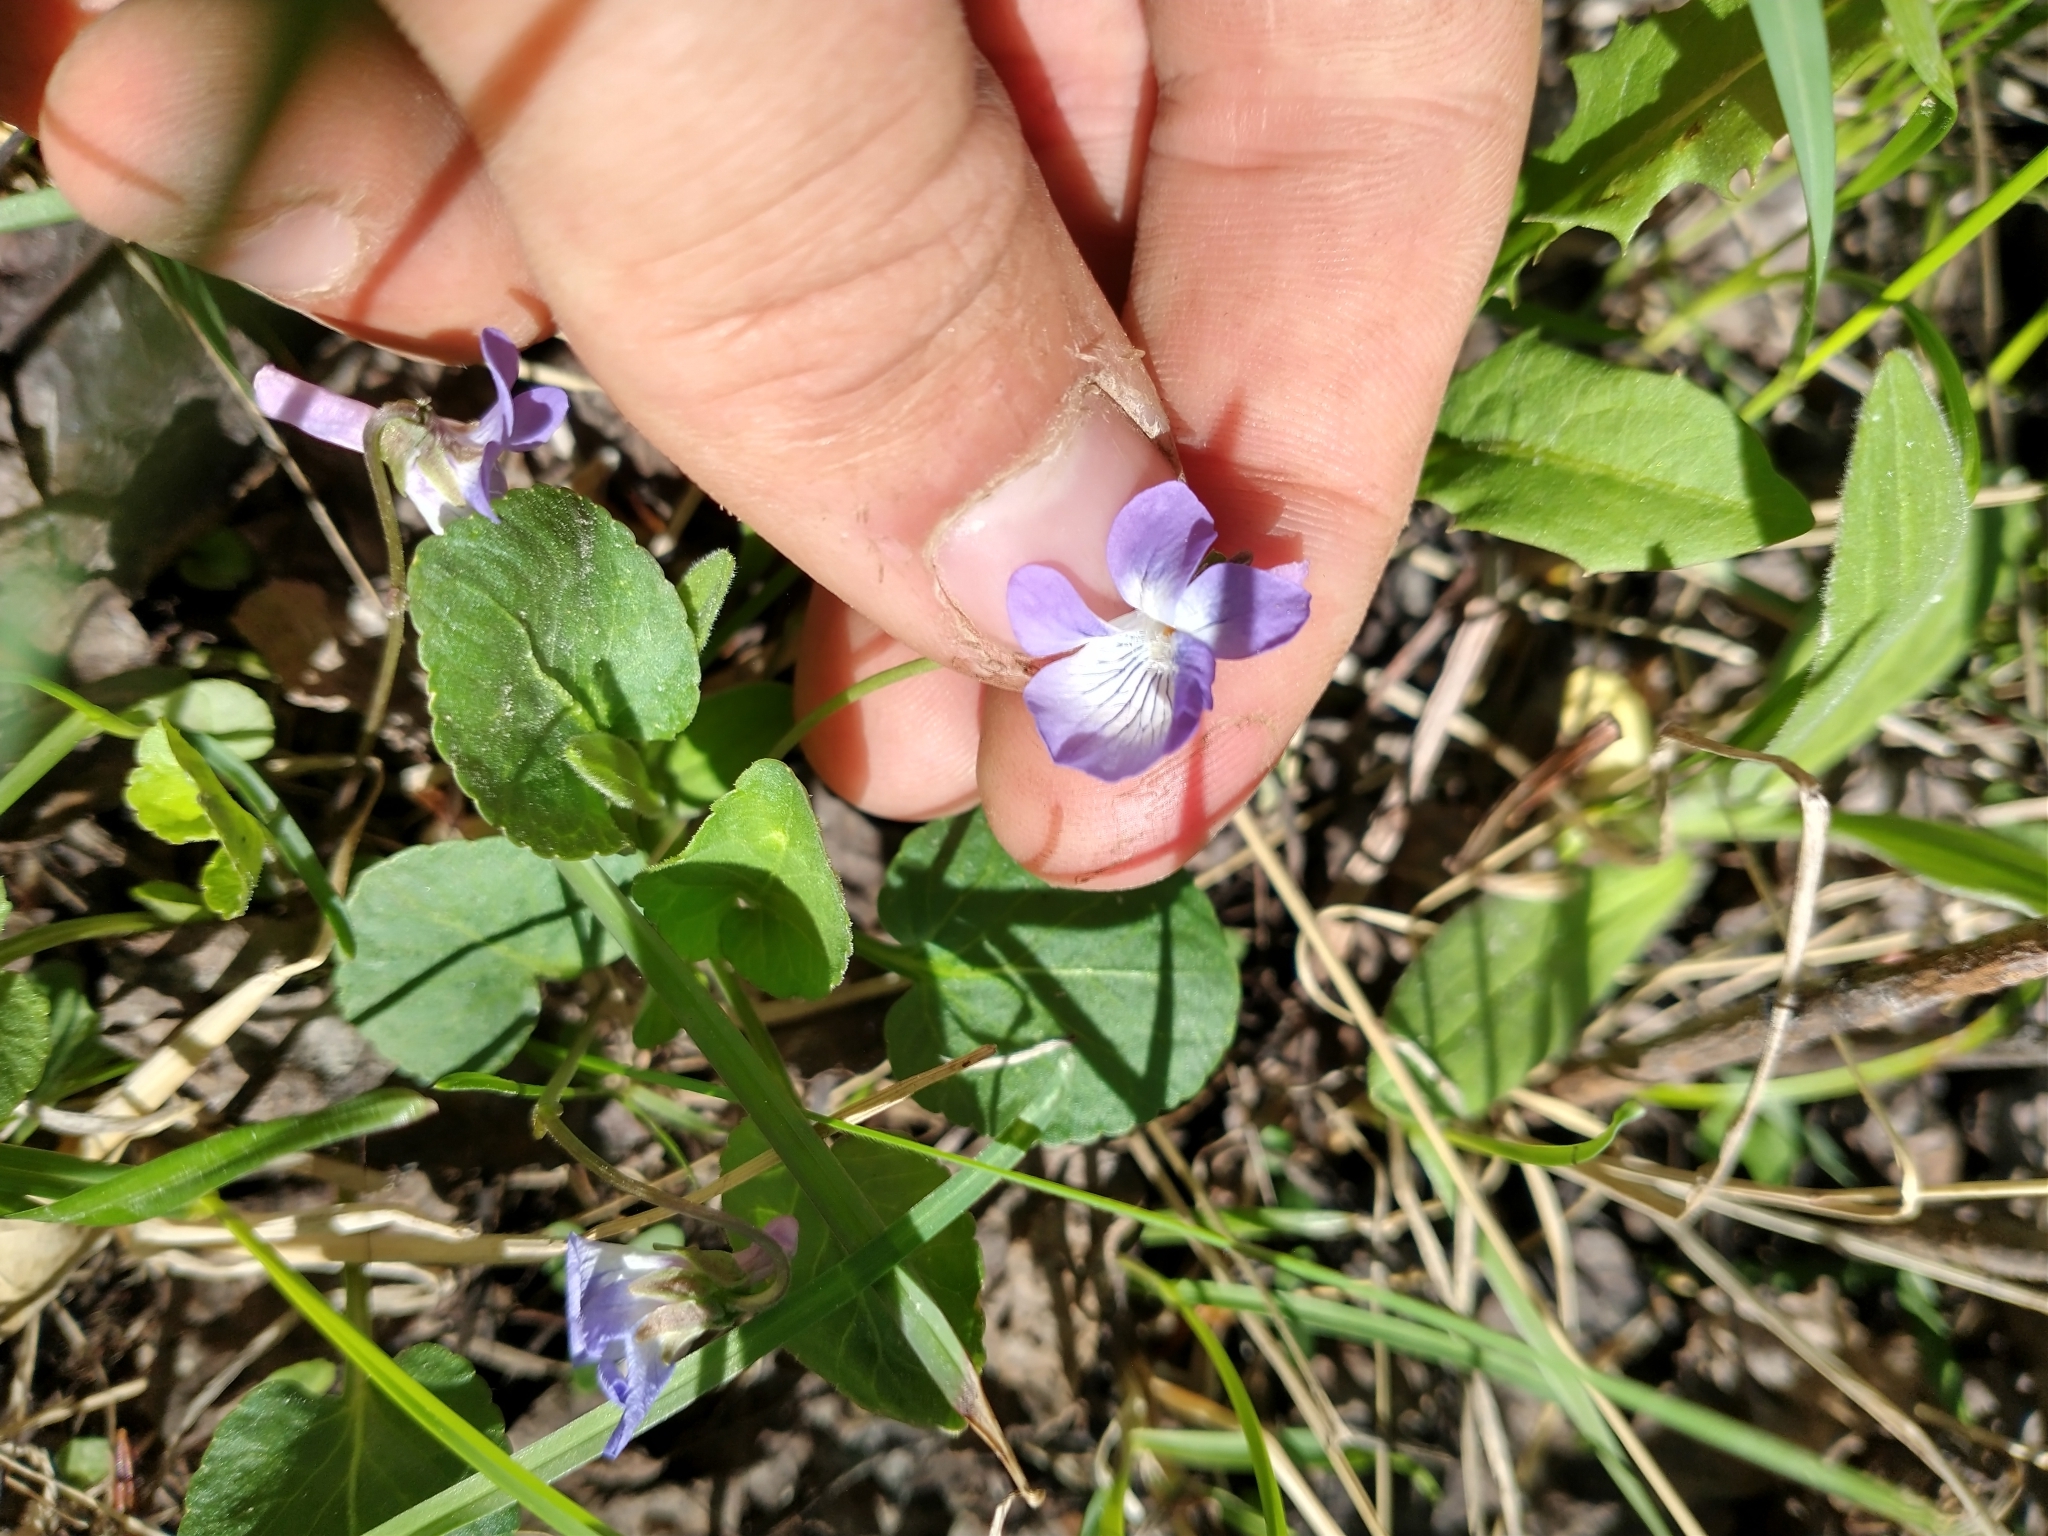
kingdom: Plantae
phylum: Tracheophyta
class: Magnoliopsida
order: Malpighiales
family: Violaceae
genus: Viola
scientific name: Viola adunca
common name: Sand violet
